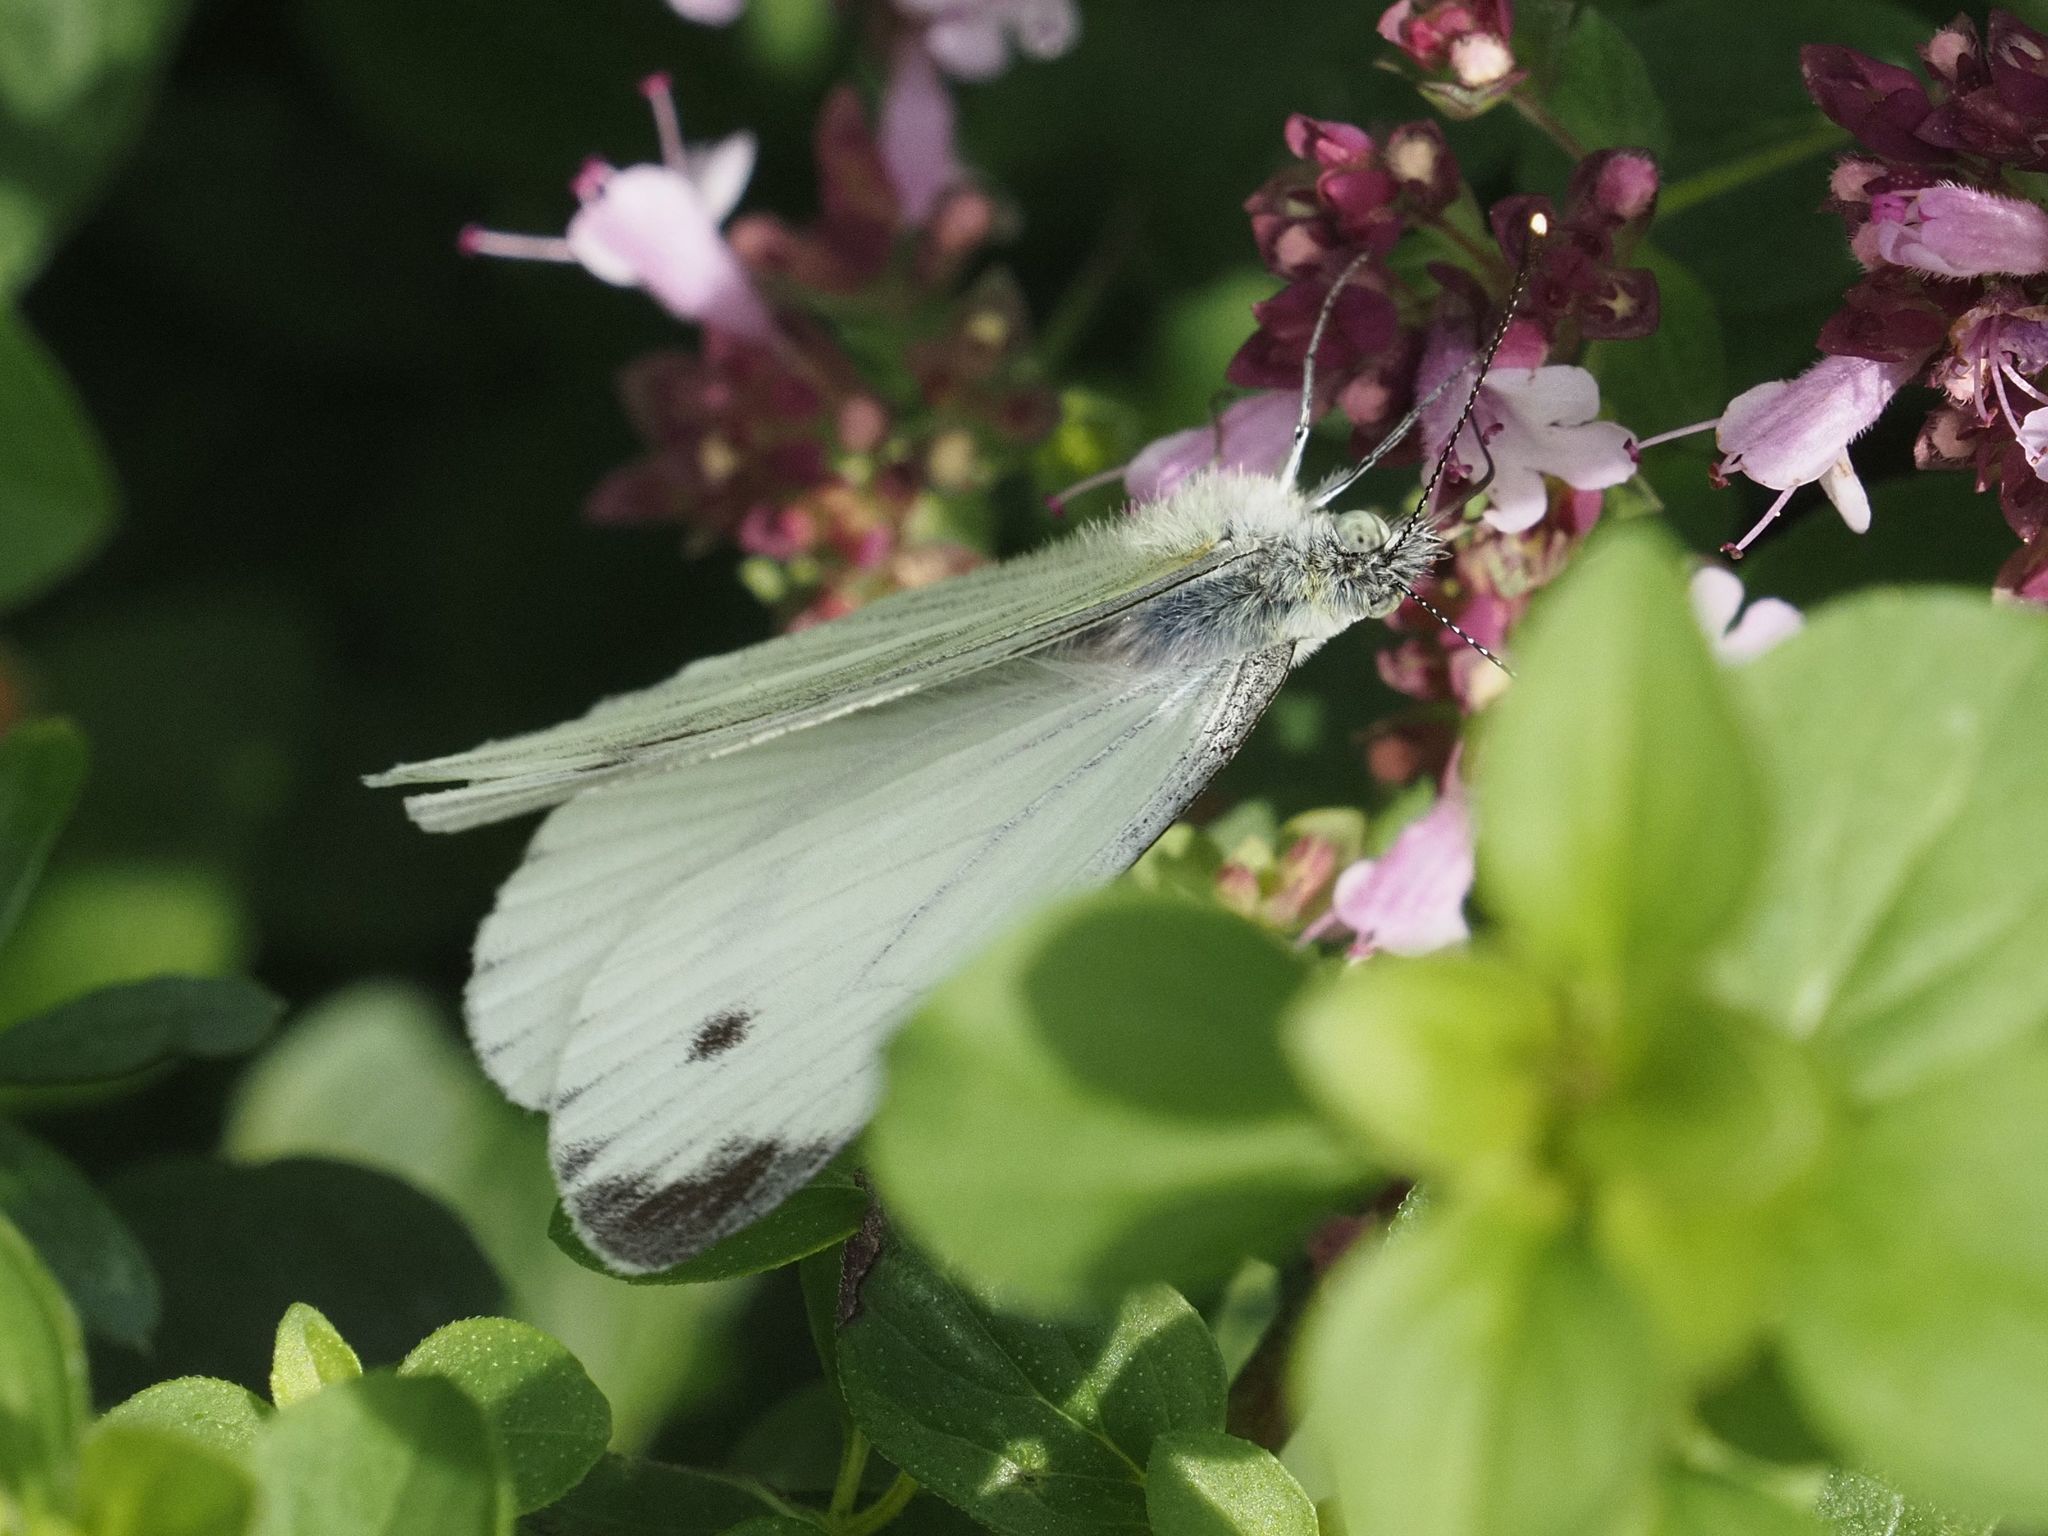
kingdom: Animalia
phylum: Arthropoda
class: Insecta
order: Lepidoptera
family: Pieridae
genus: Pieris
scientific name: Pieris napi
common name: Green-veined white
